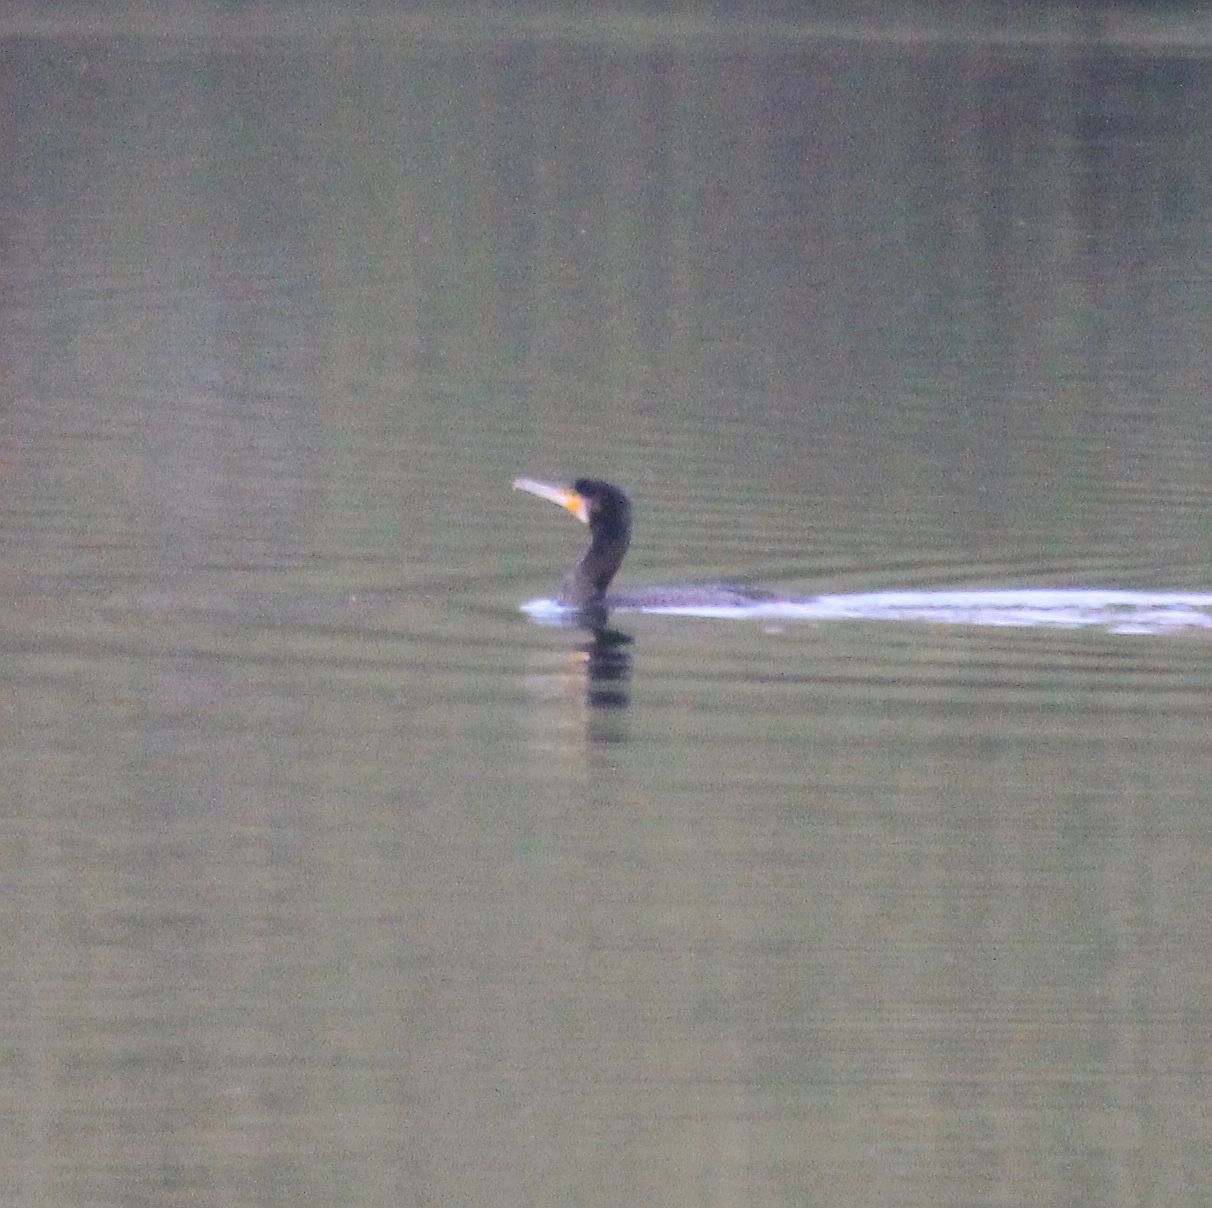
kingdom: Animalia
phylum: Chordata
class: Aves
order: Suliformes
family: Phalacrocoracidae
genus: Phalacrocorax
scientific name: Phalacrocorax carbo
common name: Great cormorant
